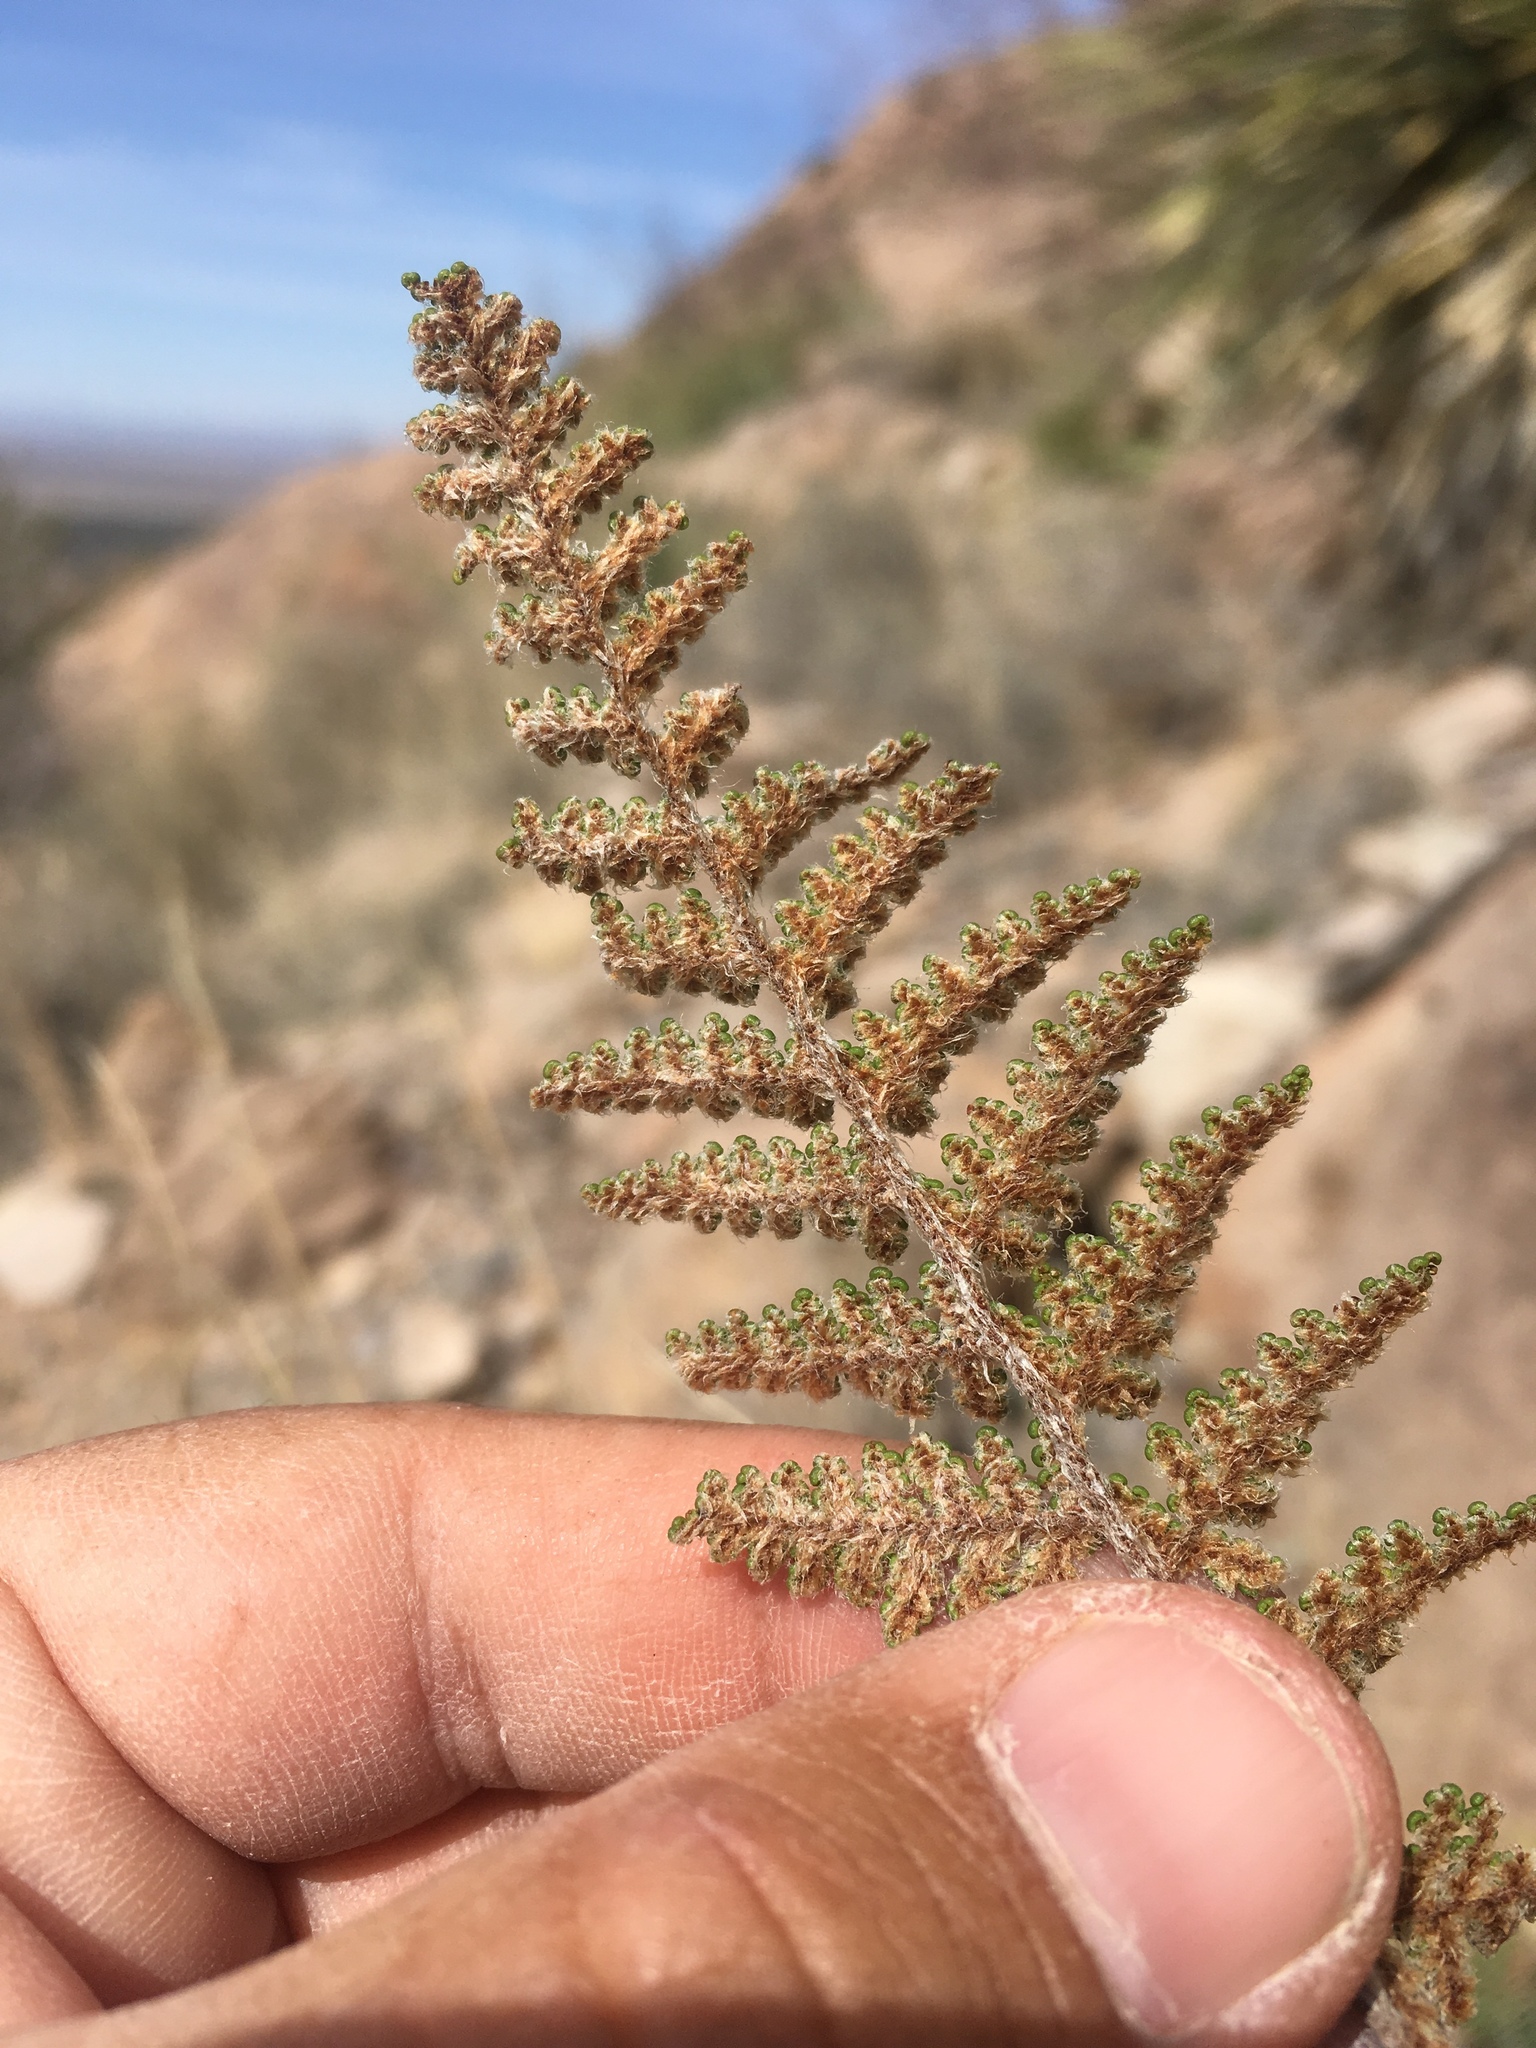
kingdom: Plantae
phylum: Tracheophyta
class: Polypodiopsida
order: Polypodiales
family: Pteridaceae
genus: Myriopteris
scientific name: Myriopteris yavapensis
